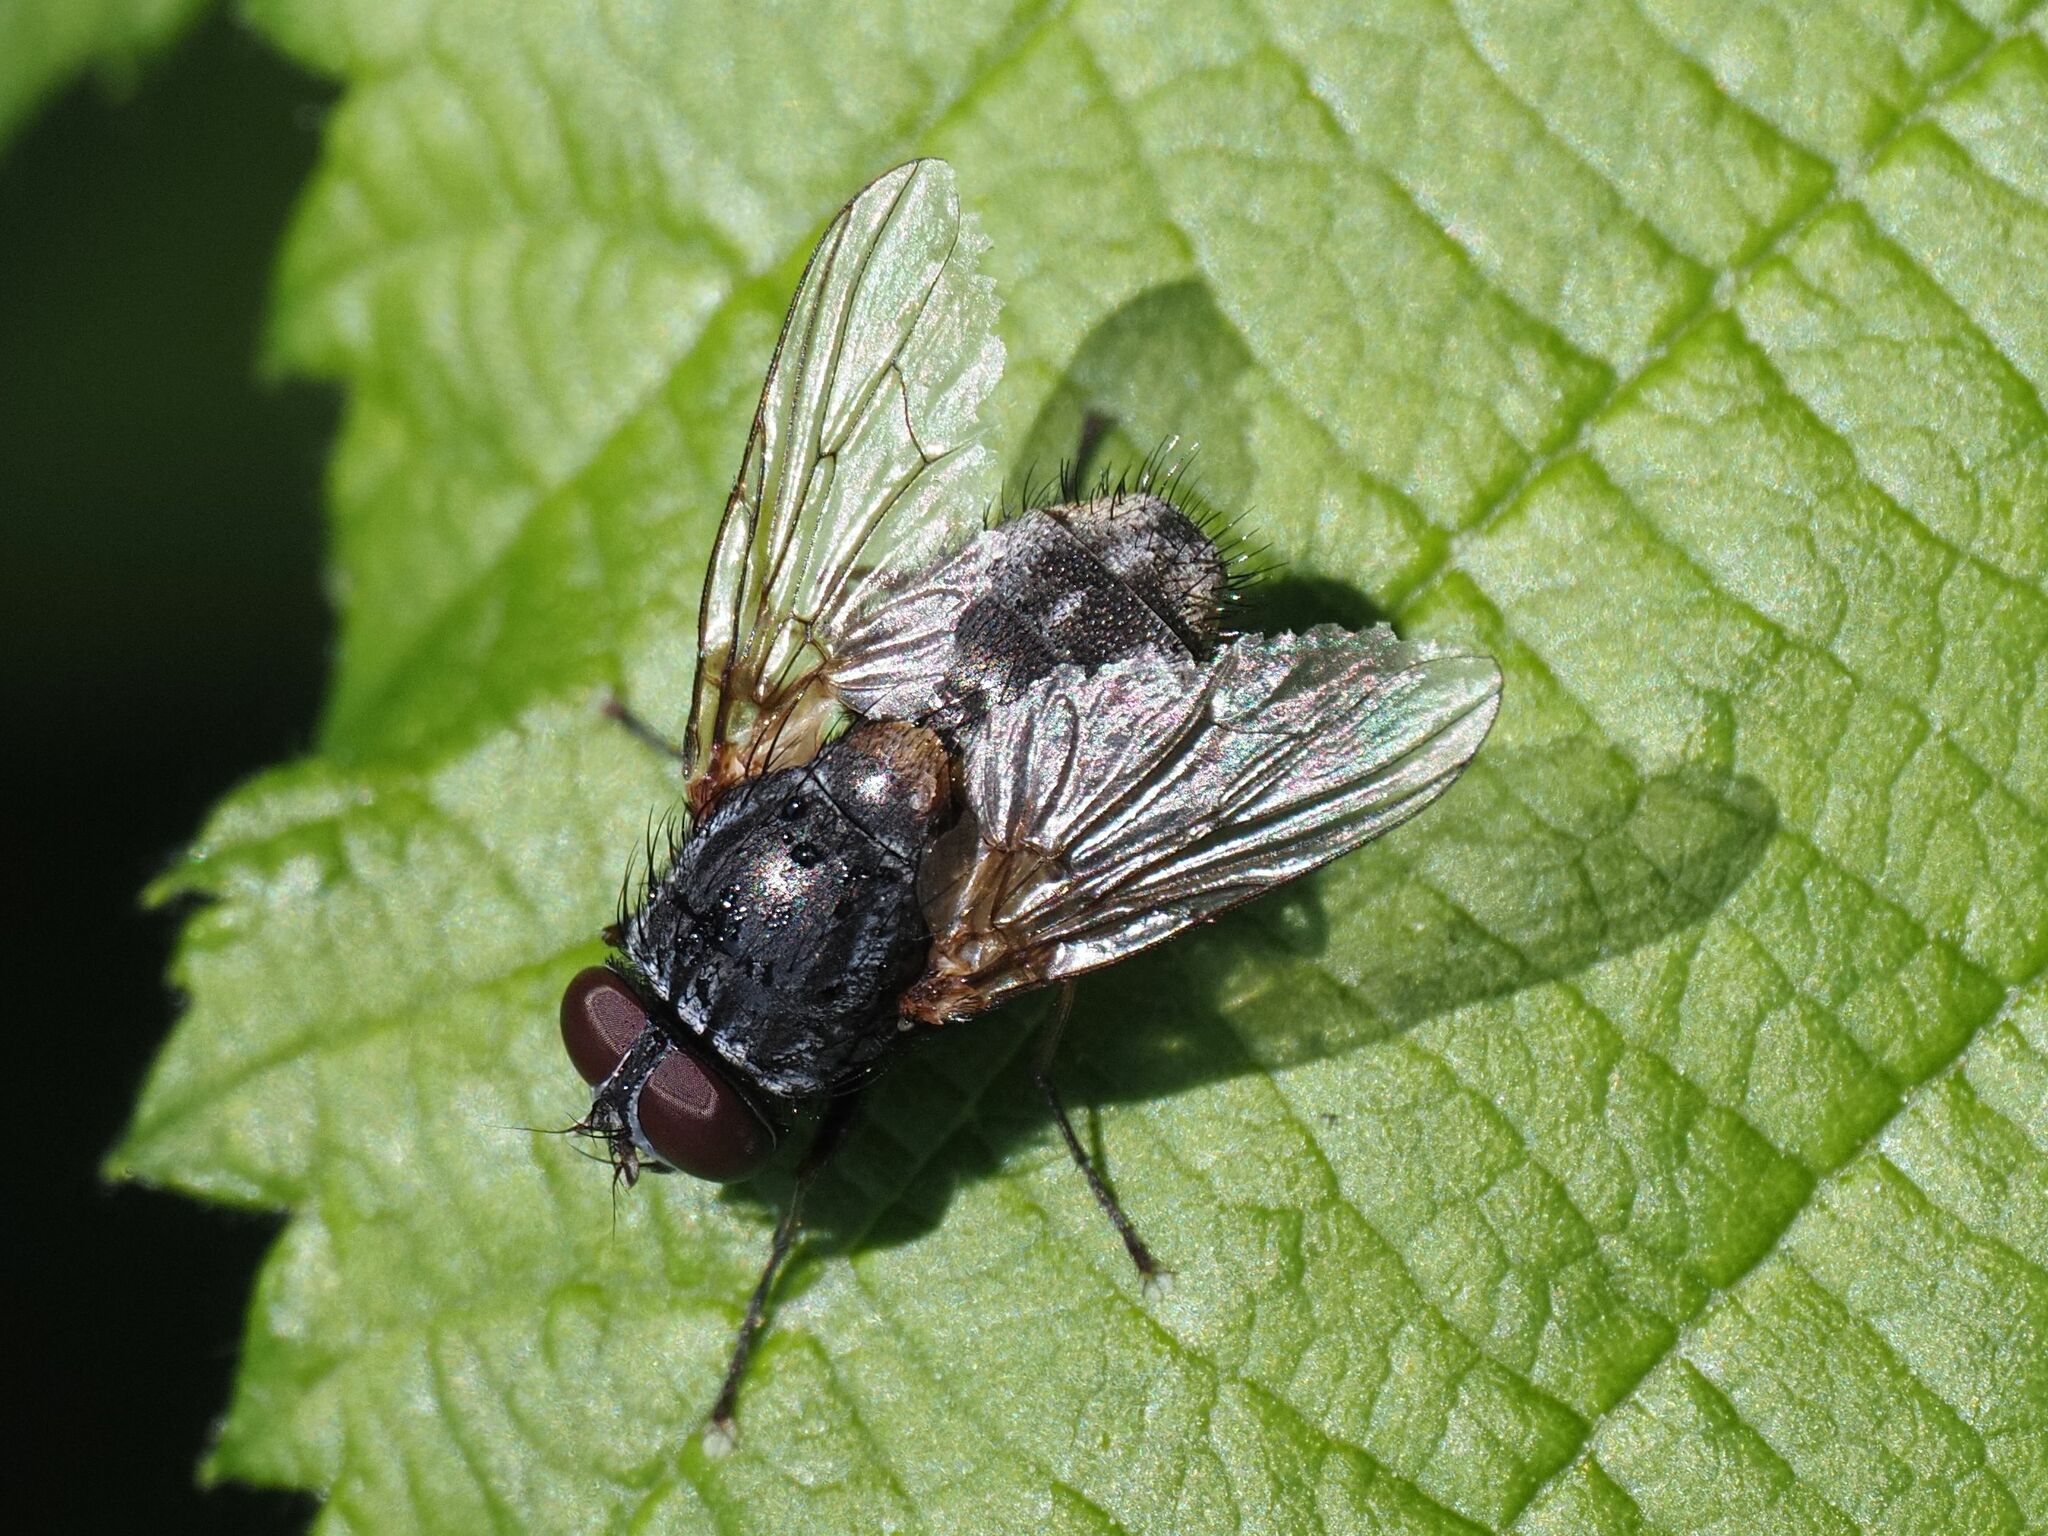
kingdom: Animalia
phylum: Arthropoda
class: Insecta
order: Diptera
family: Muscidae
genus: Muscina
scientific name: Muscina stabulans
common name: False stable fly
